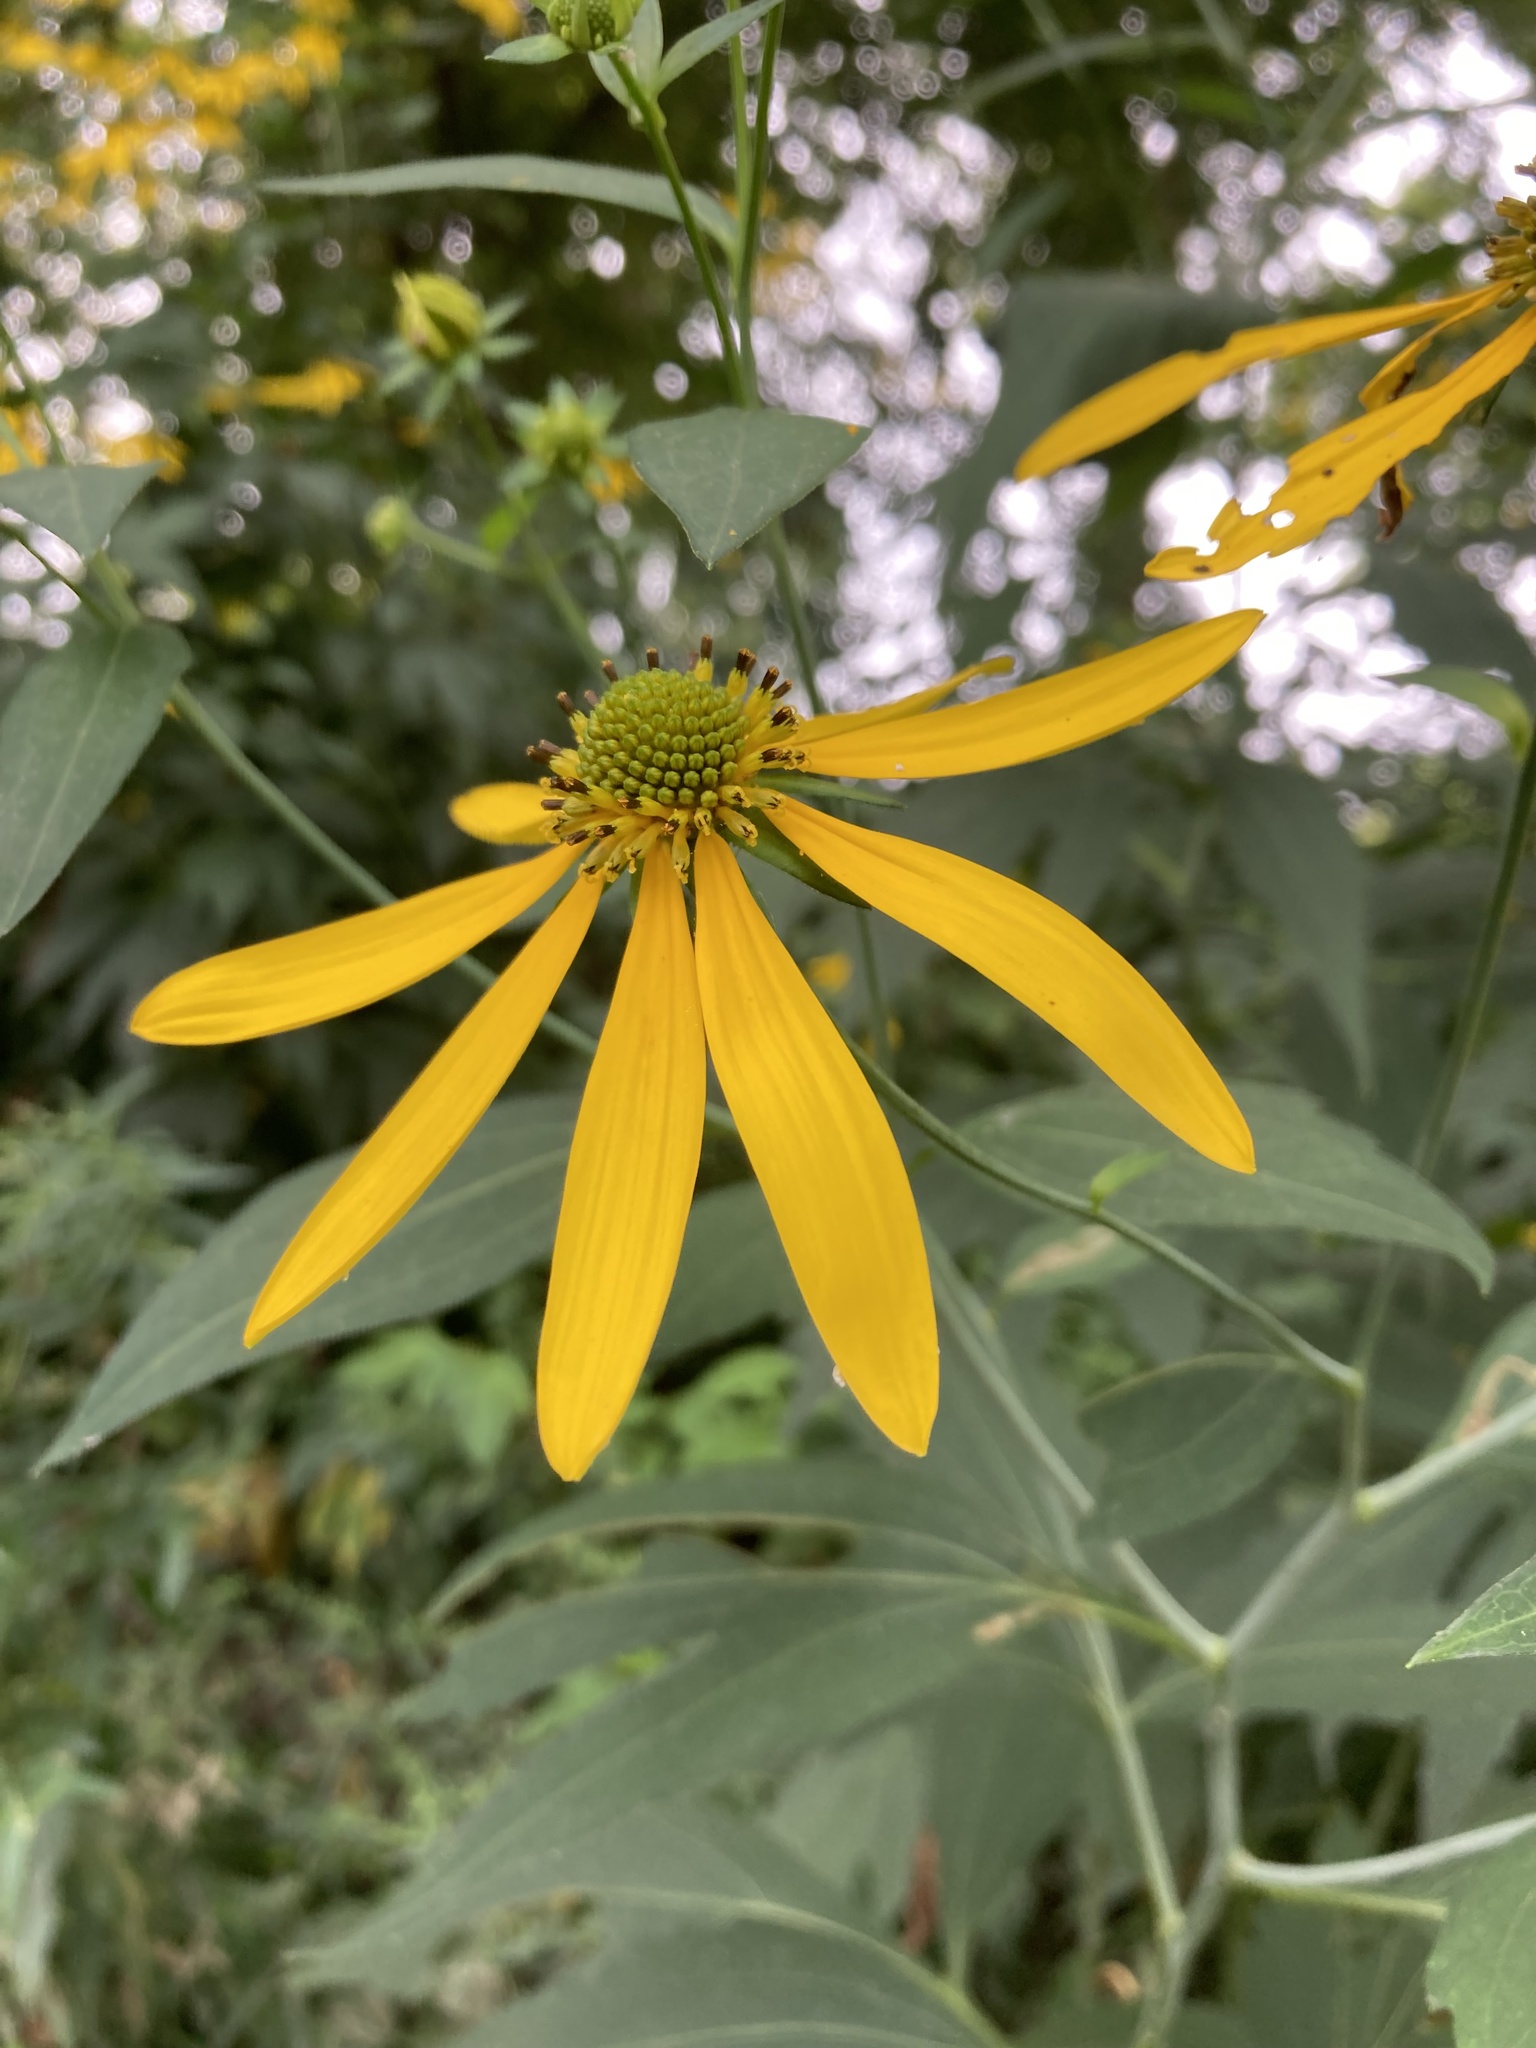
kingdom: Plantae
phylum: Tracheophyta
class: Magnoliopsida
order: Asterales
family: Asteraceae
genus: Rudbeckia
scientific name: Rudbeckia laciniata
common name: Coneflower
